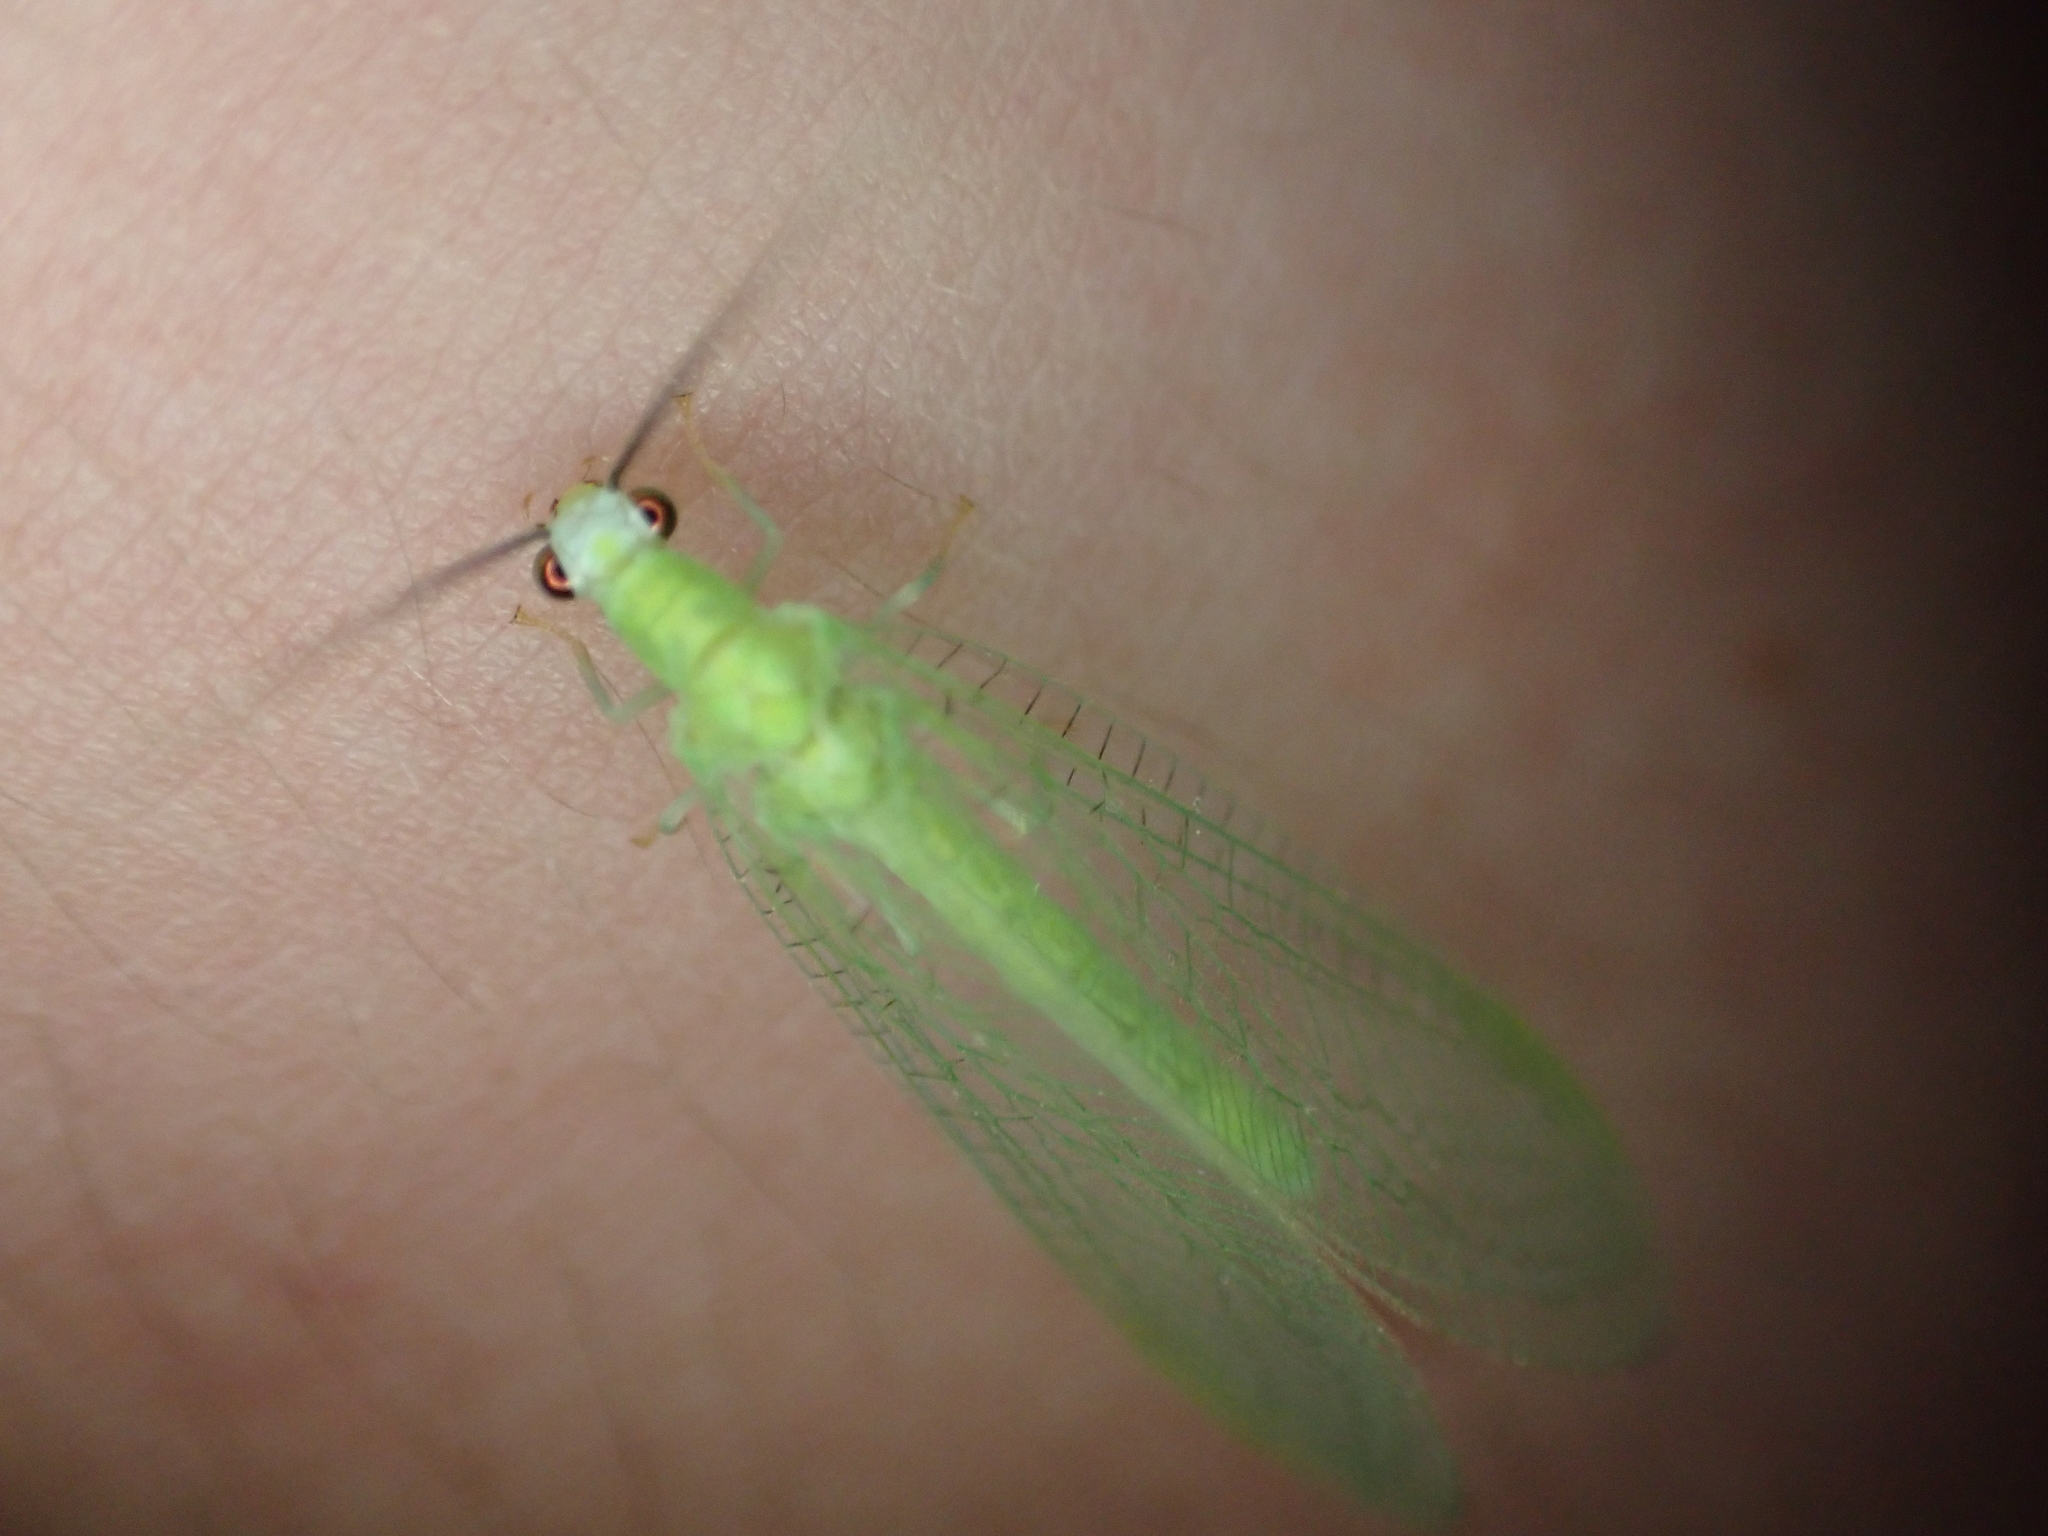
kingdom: Animalia
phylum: Arthropoda
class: Insecta
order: Neuroptera
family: Chrysopidae
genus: Chrysopa
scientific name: Chrysopa nigricornis
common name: Black-horned green lacewing
